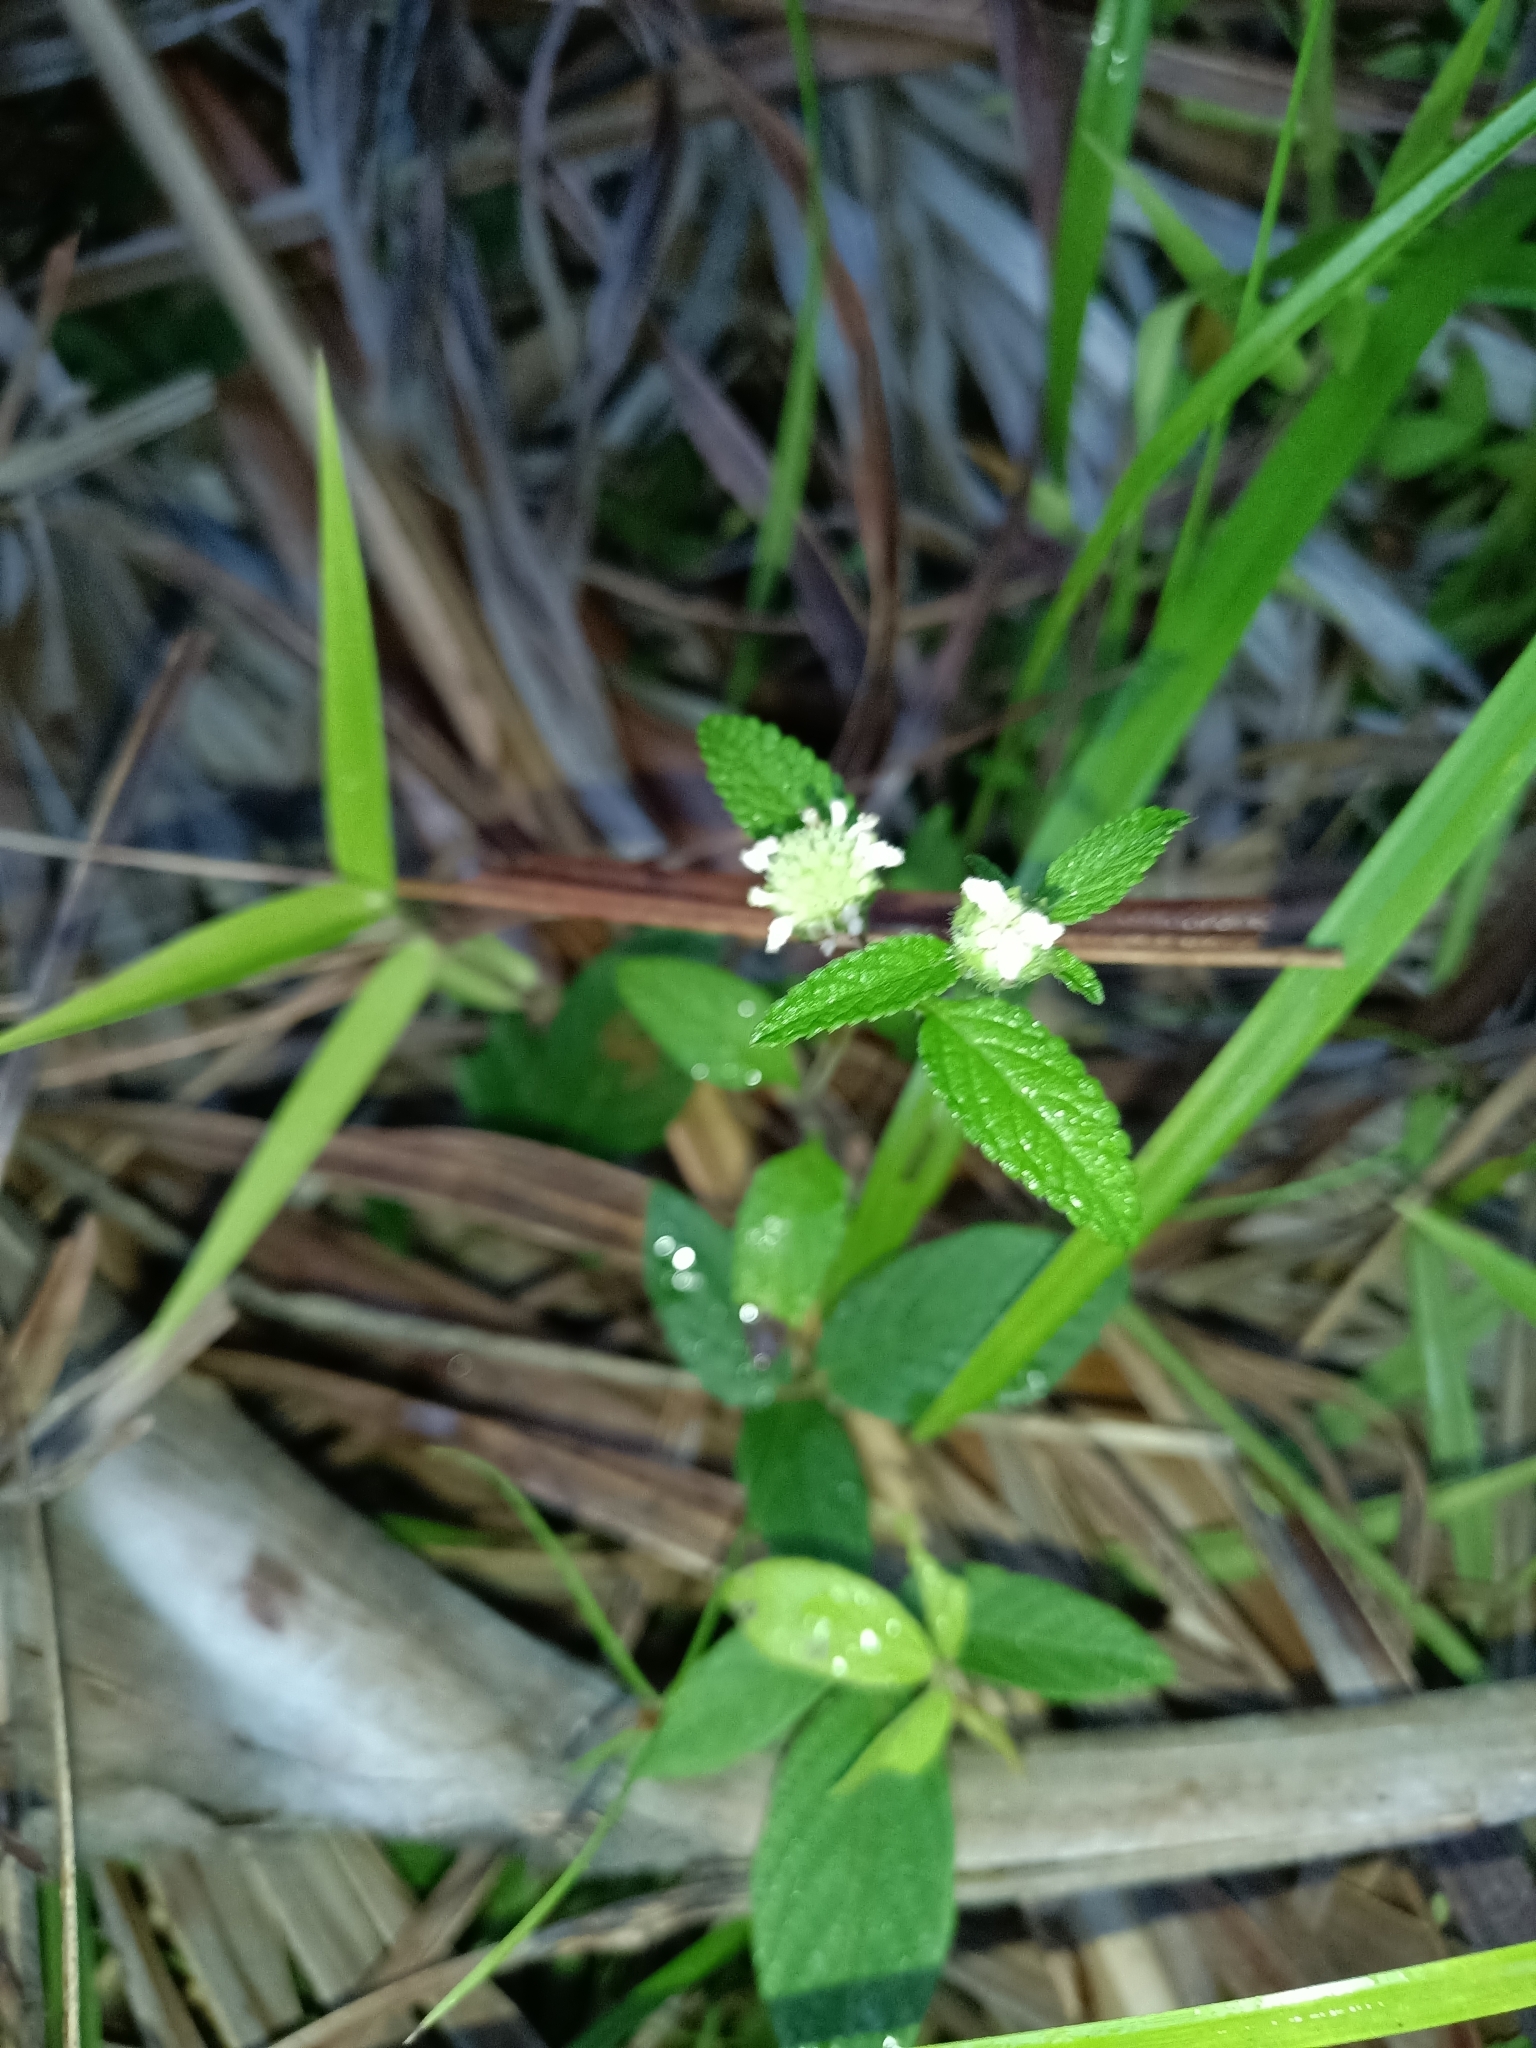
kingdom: Plantae
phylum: Tracheophyta
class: Magnoliopsida
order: Lamiales
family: Lamiaceae
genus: Hyptis
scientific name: Hyptis atrorubens
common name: Lanmant
